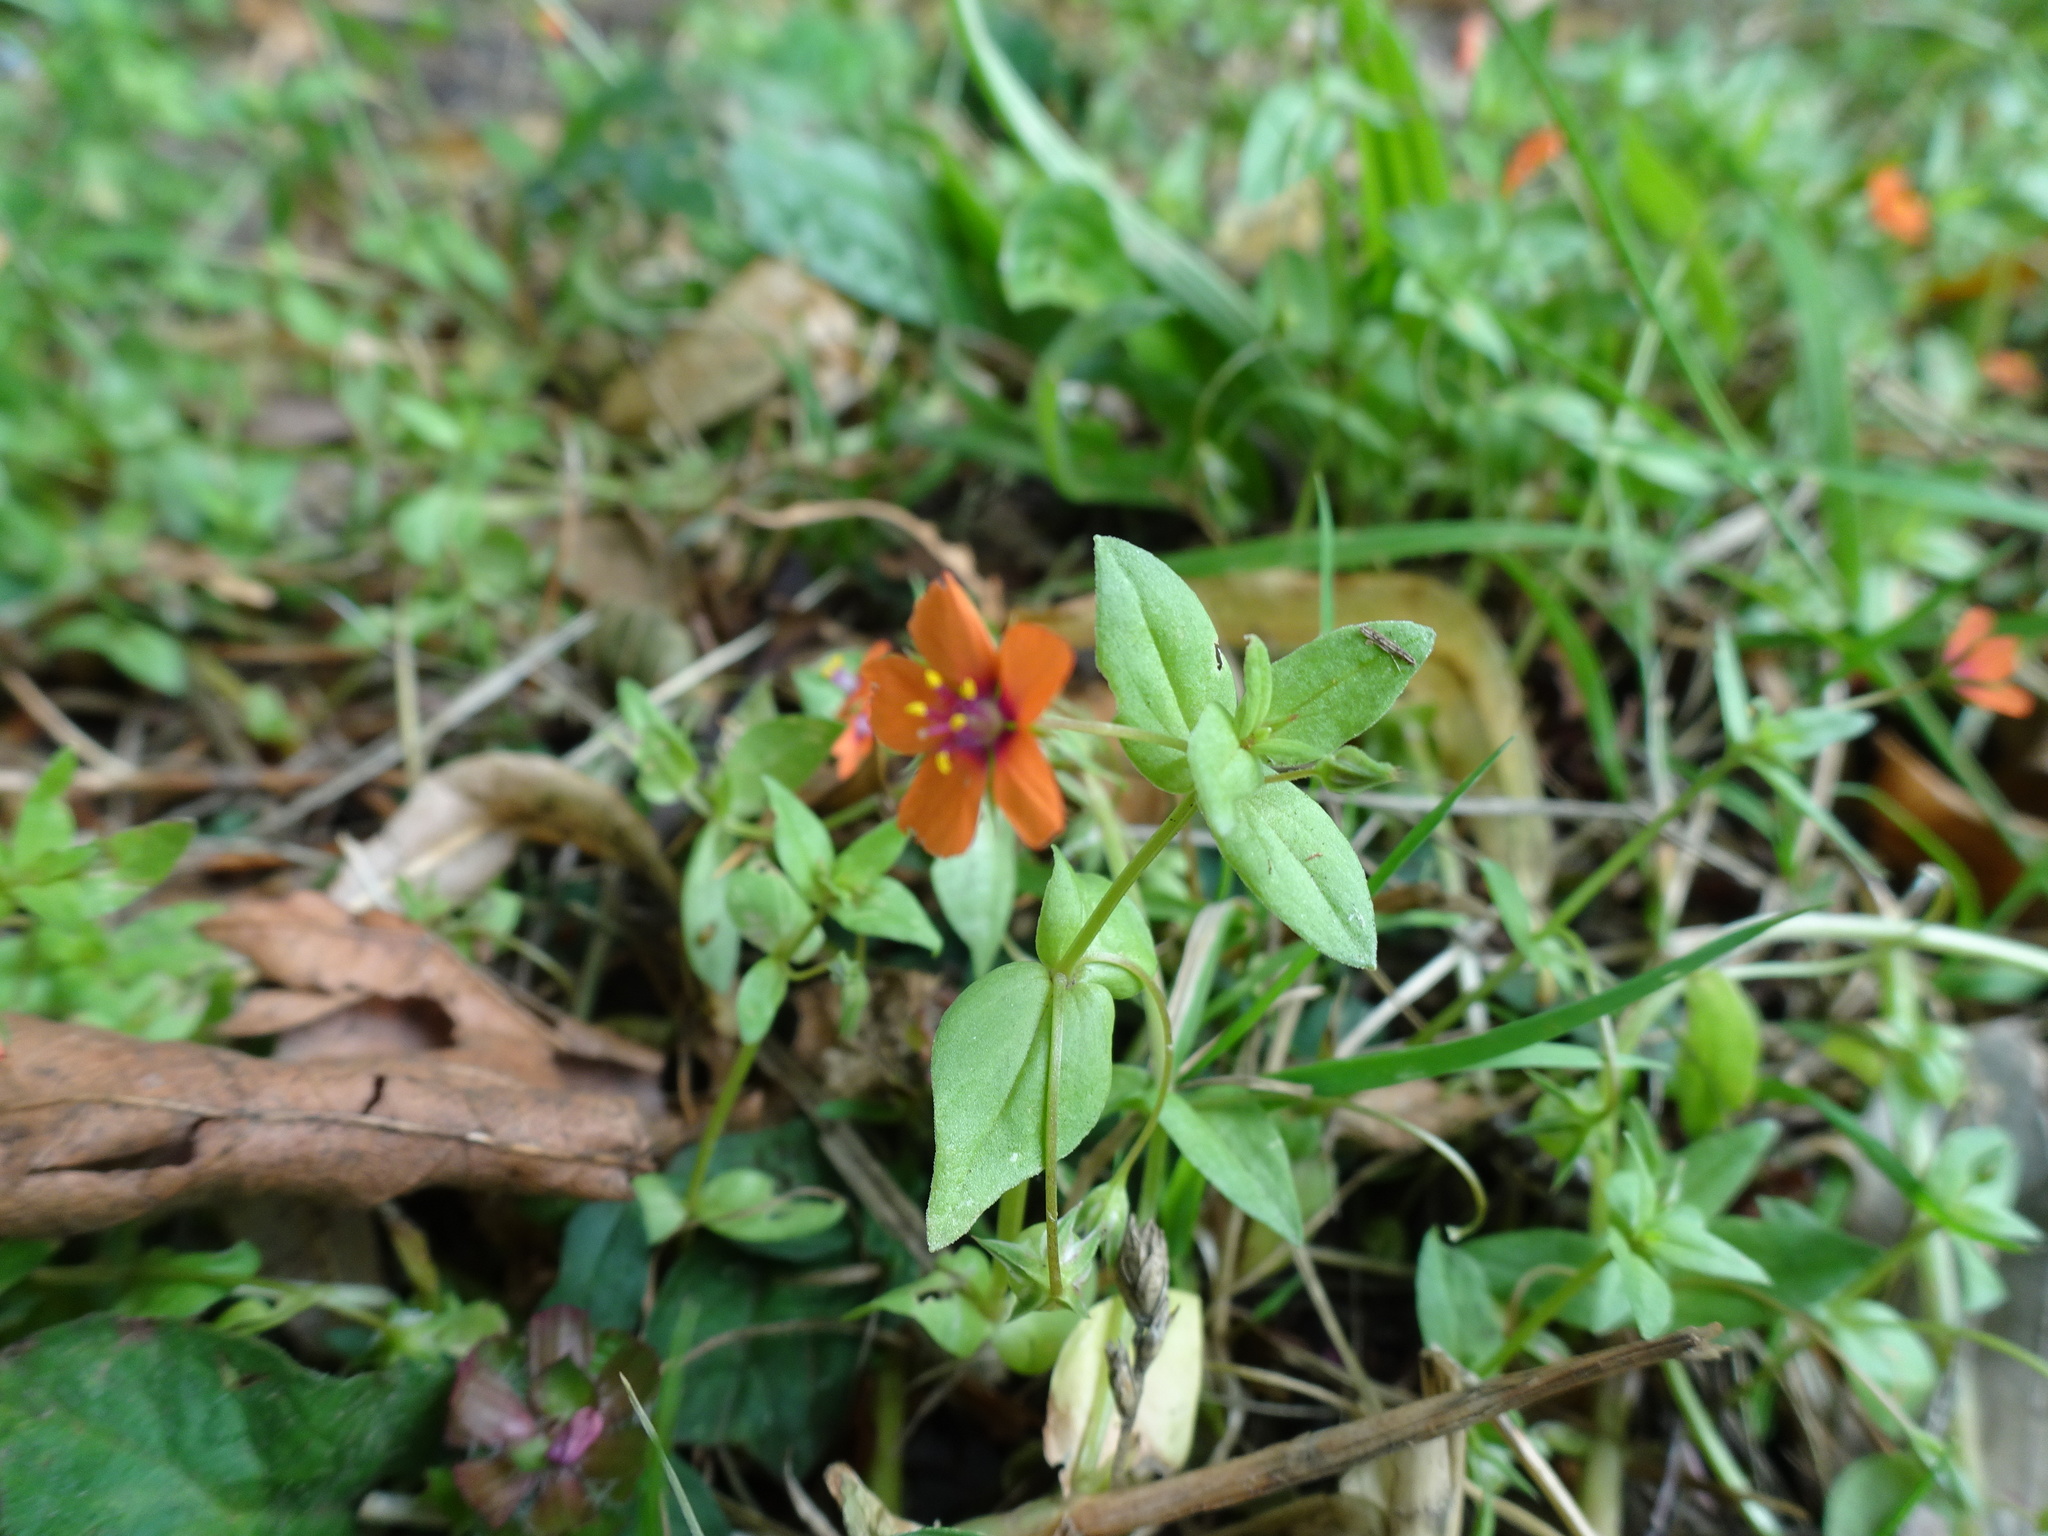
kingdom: Plantae
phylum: Tracheophyta
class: Magnoliopsida
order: Ericales
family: Primulaceae
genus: Lysimachia
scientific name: Lysimachia arvensis
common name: Scarlet pimpernel
